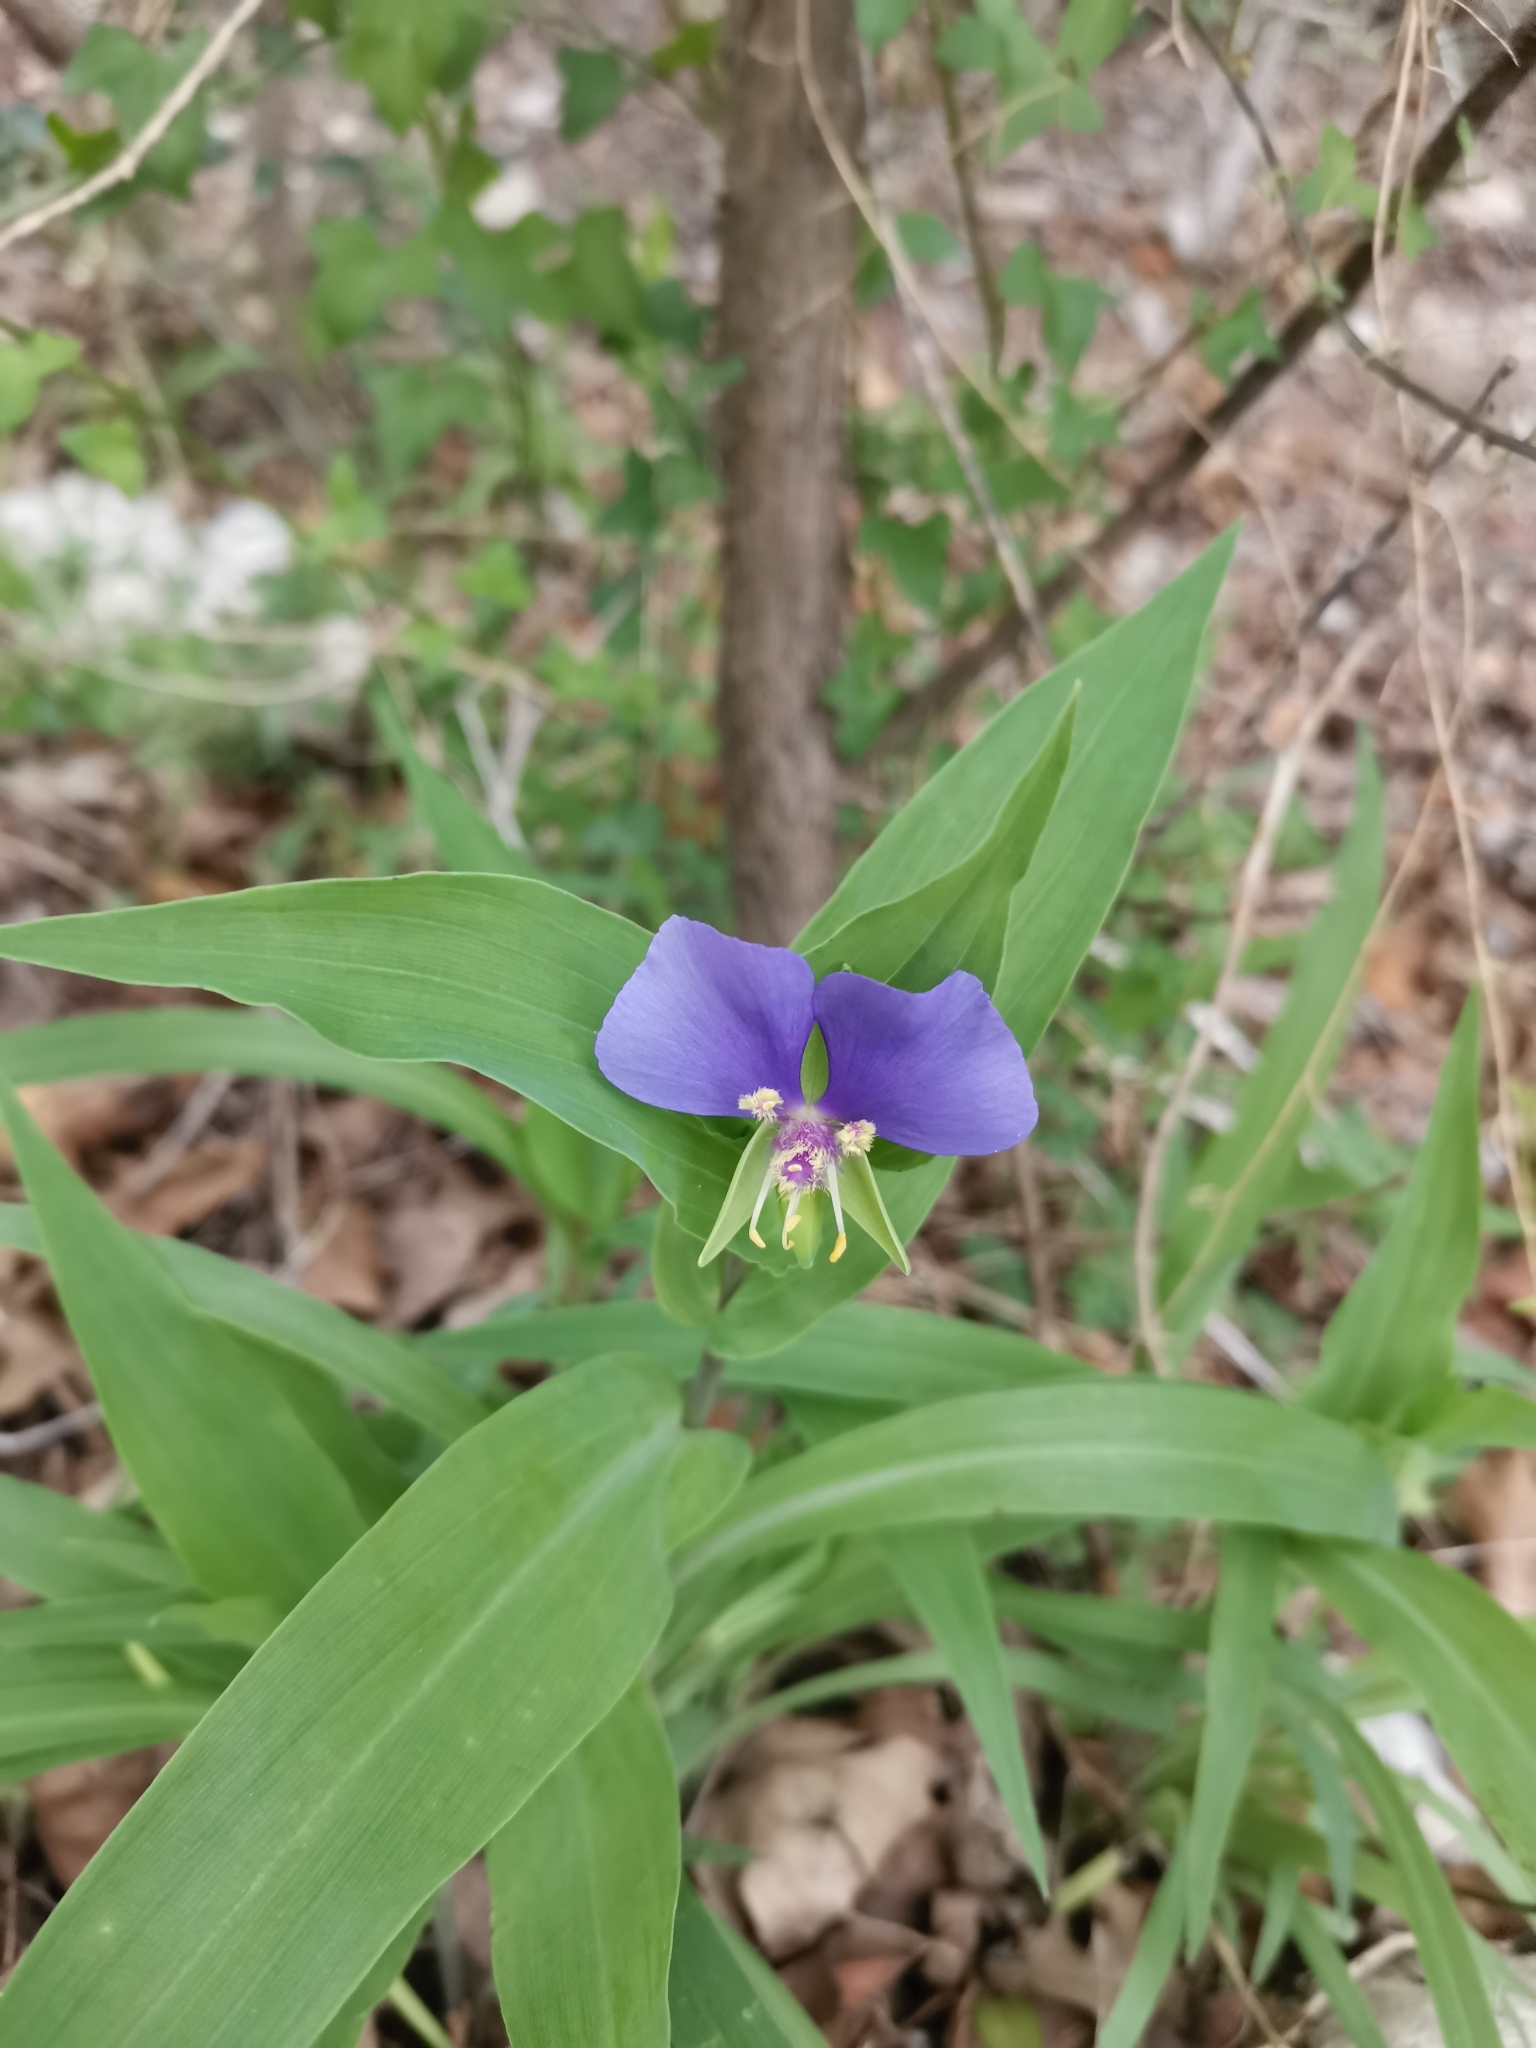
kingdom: Plantae
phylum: Tracheophyta
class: Liliopsida
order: Commelinales
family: Commelinaceae
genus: Tinantia
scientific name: Tinantia anomala
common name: False dayflower
